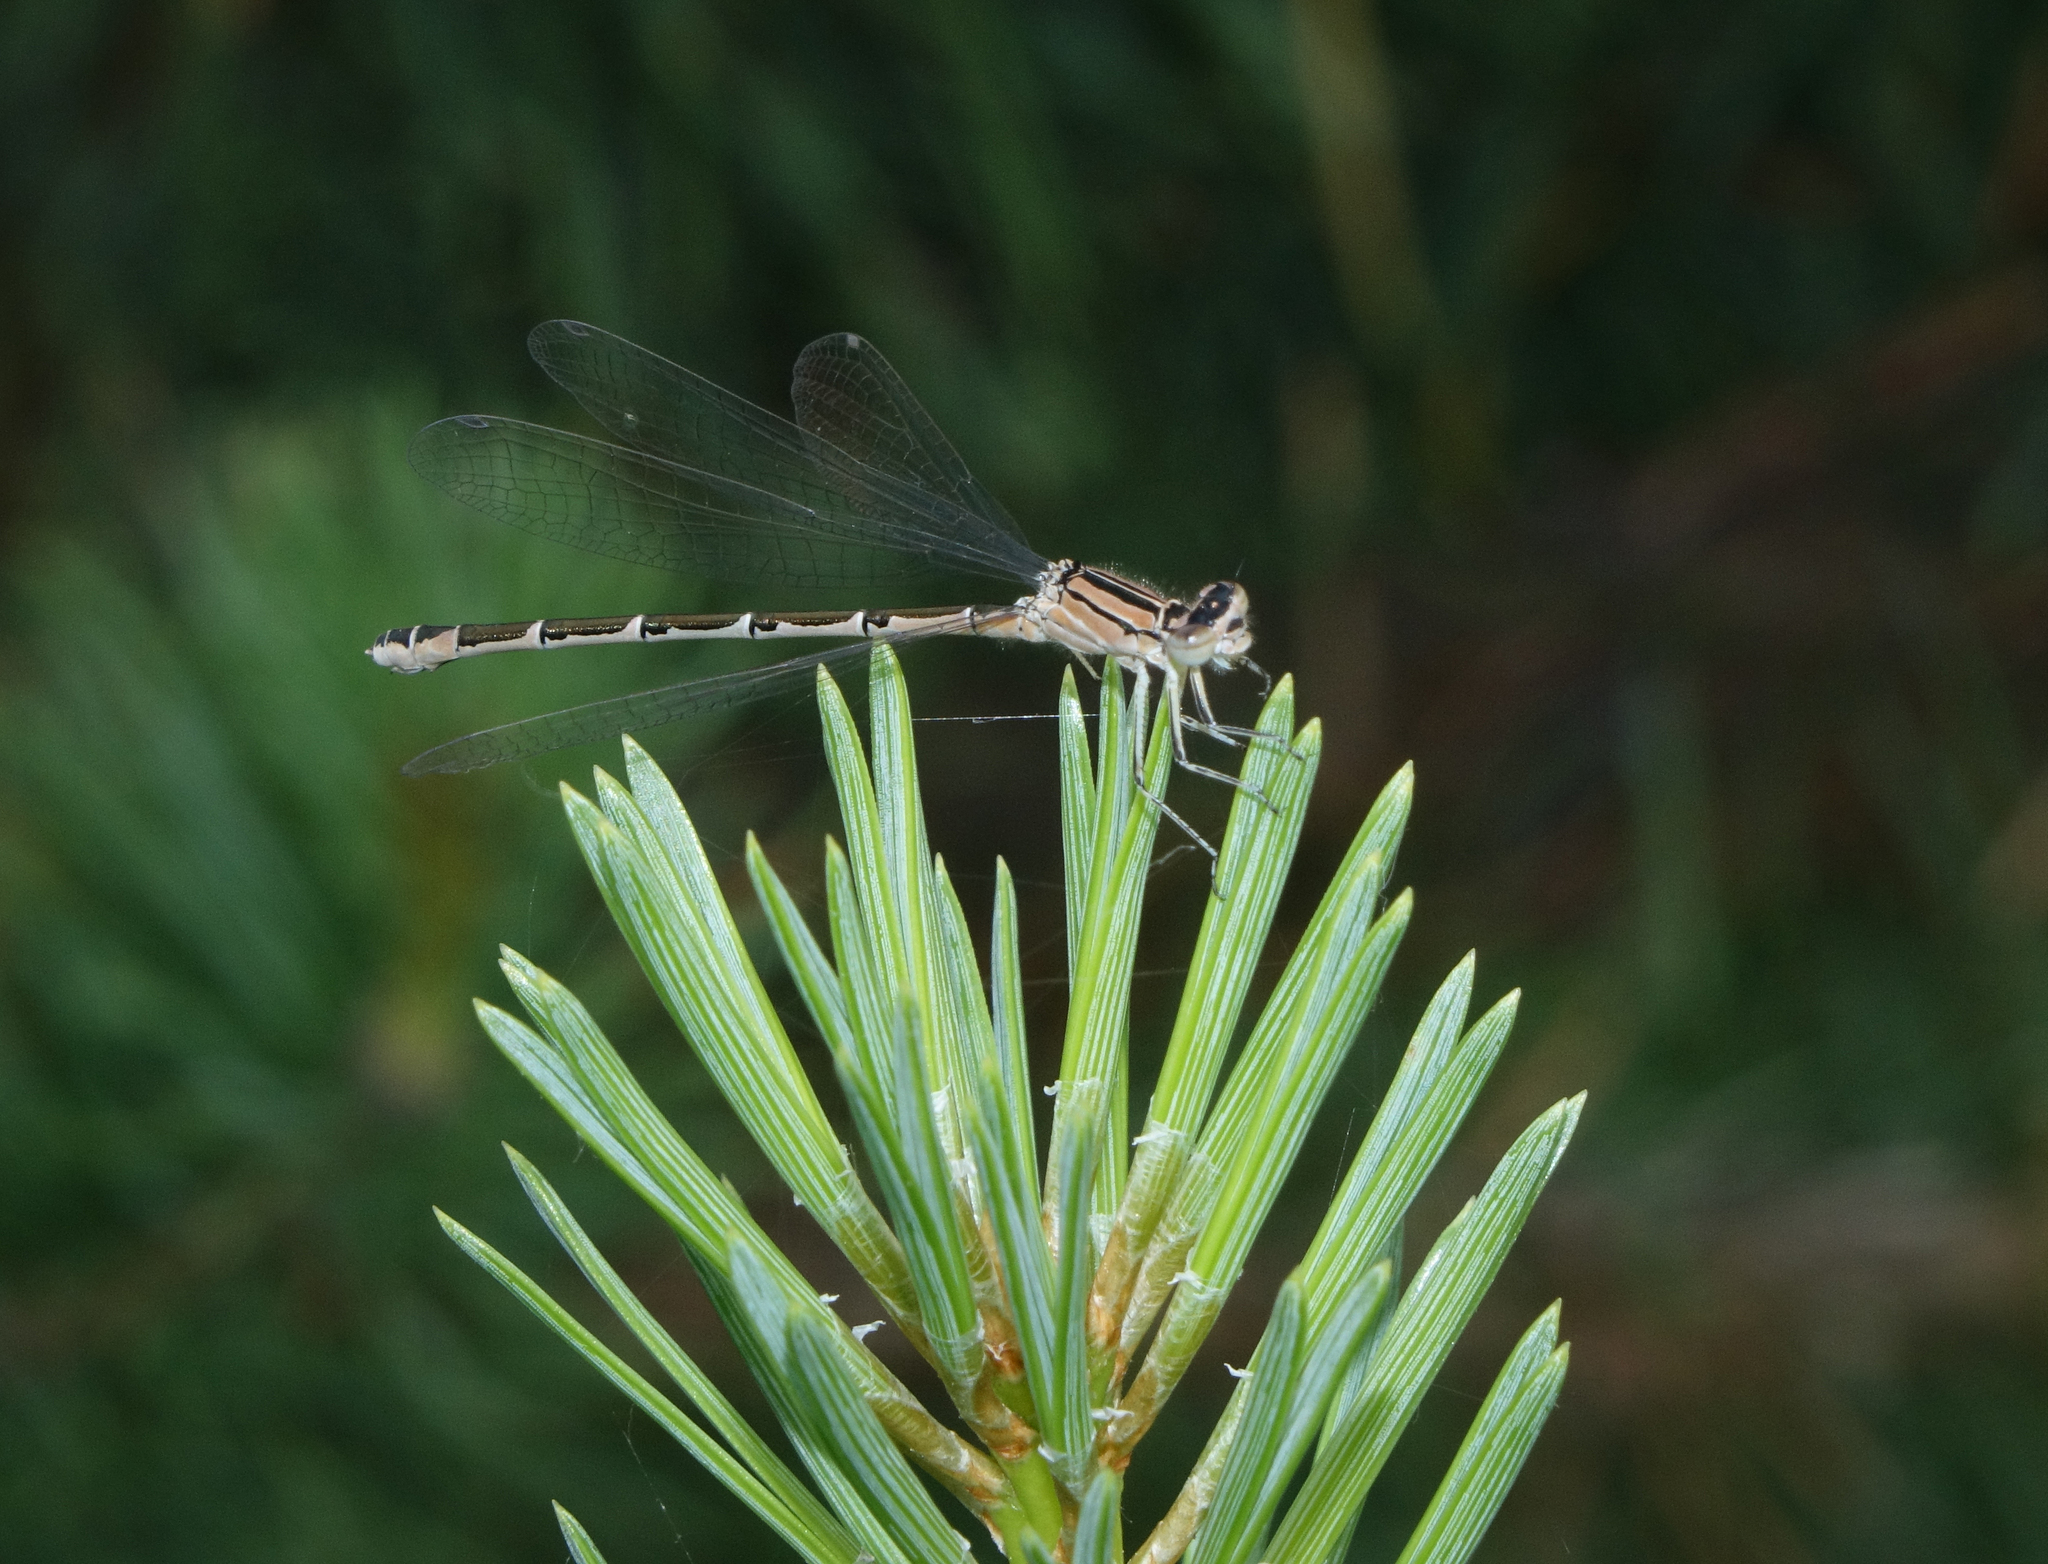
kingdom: Animalia
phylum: Arthropoda
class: Insecta
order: Odonata
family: Coenagrionidae
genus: Enallagma
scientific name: Enallagma cyathigerum
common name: Common blue damselfly
